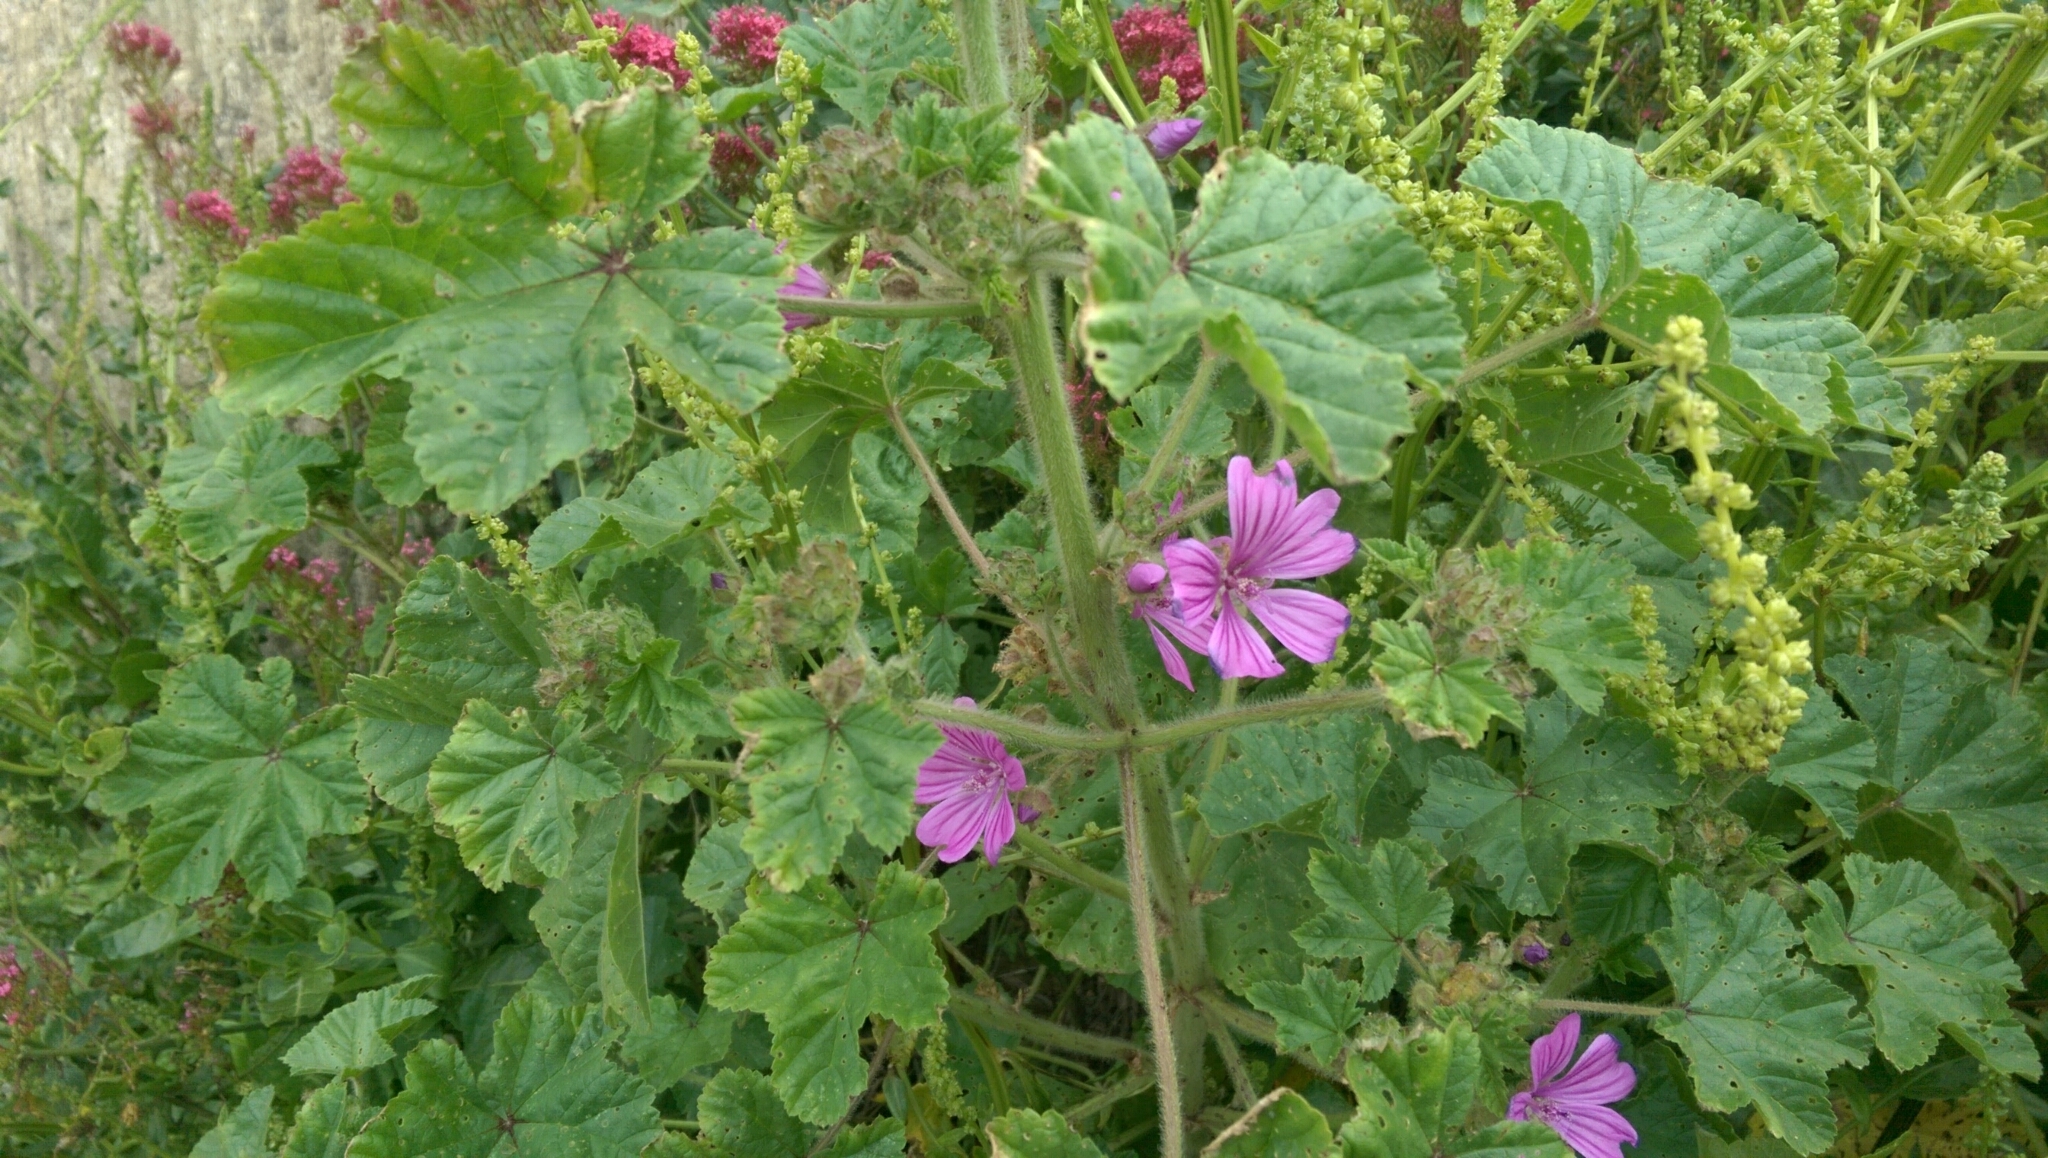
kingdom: Plantae
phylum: Tracheophyta
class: Magnoliopsida
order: Malvales
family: Malvaceae
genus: Malva
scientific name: Malva sylvestris
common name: Common mallow
